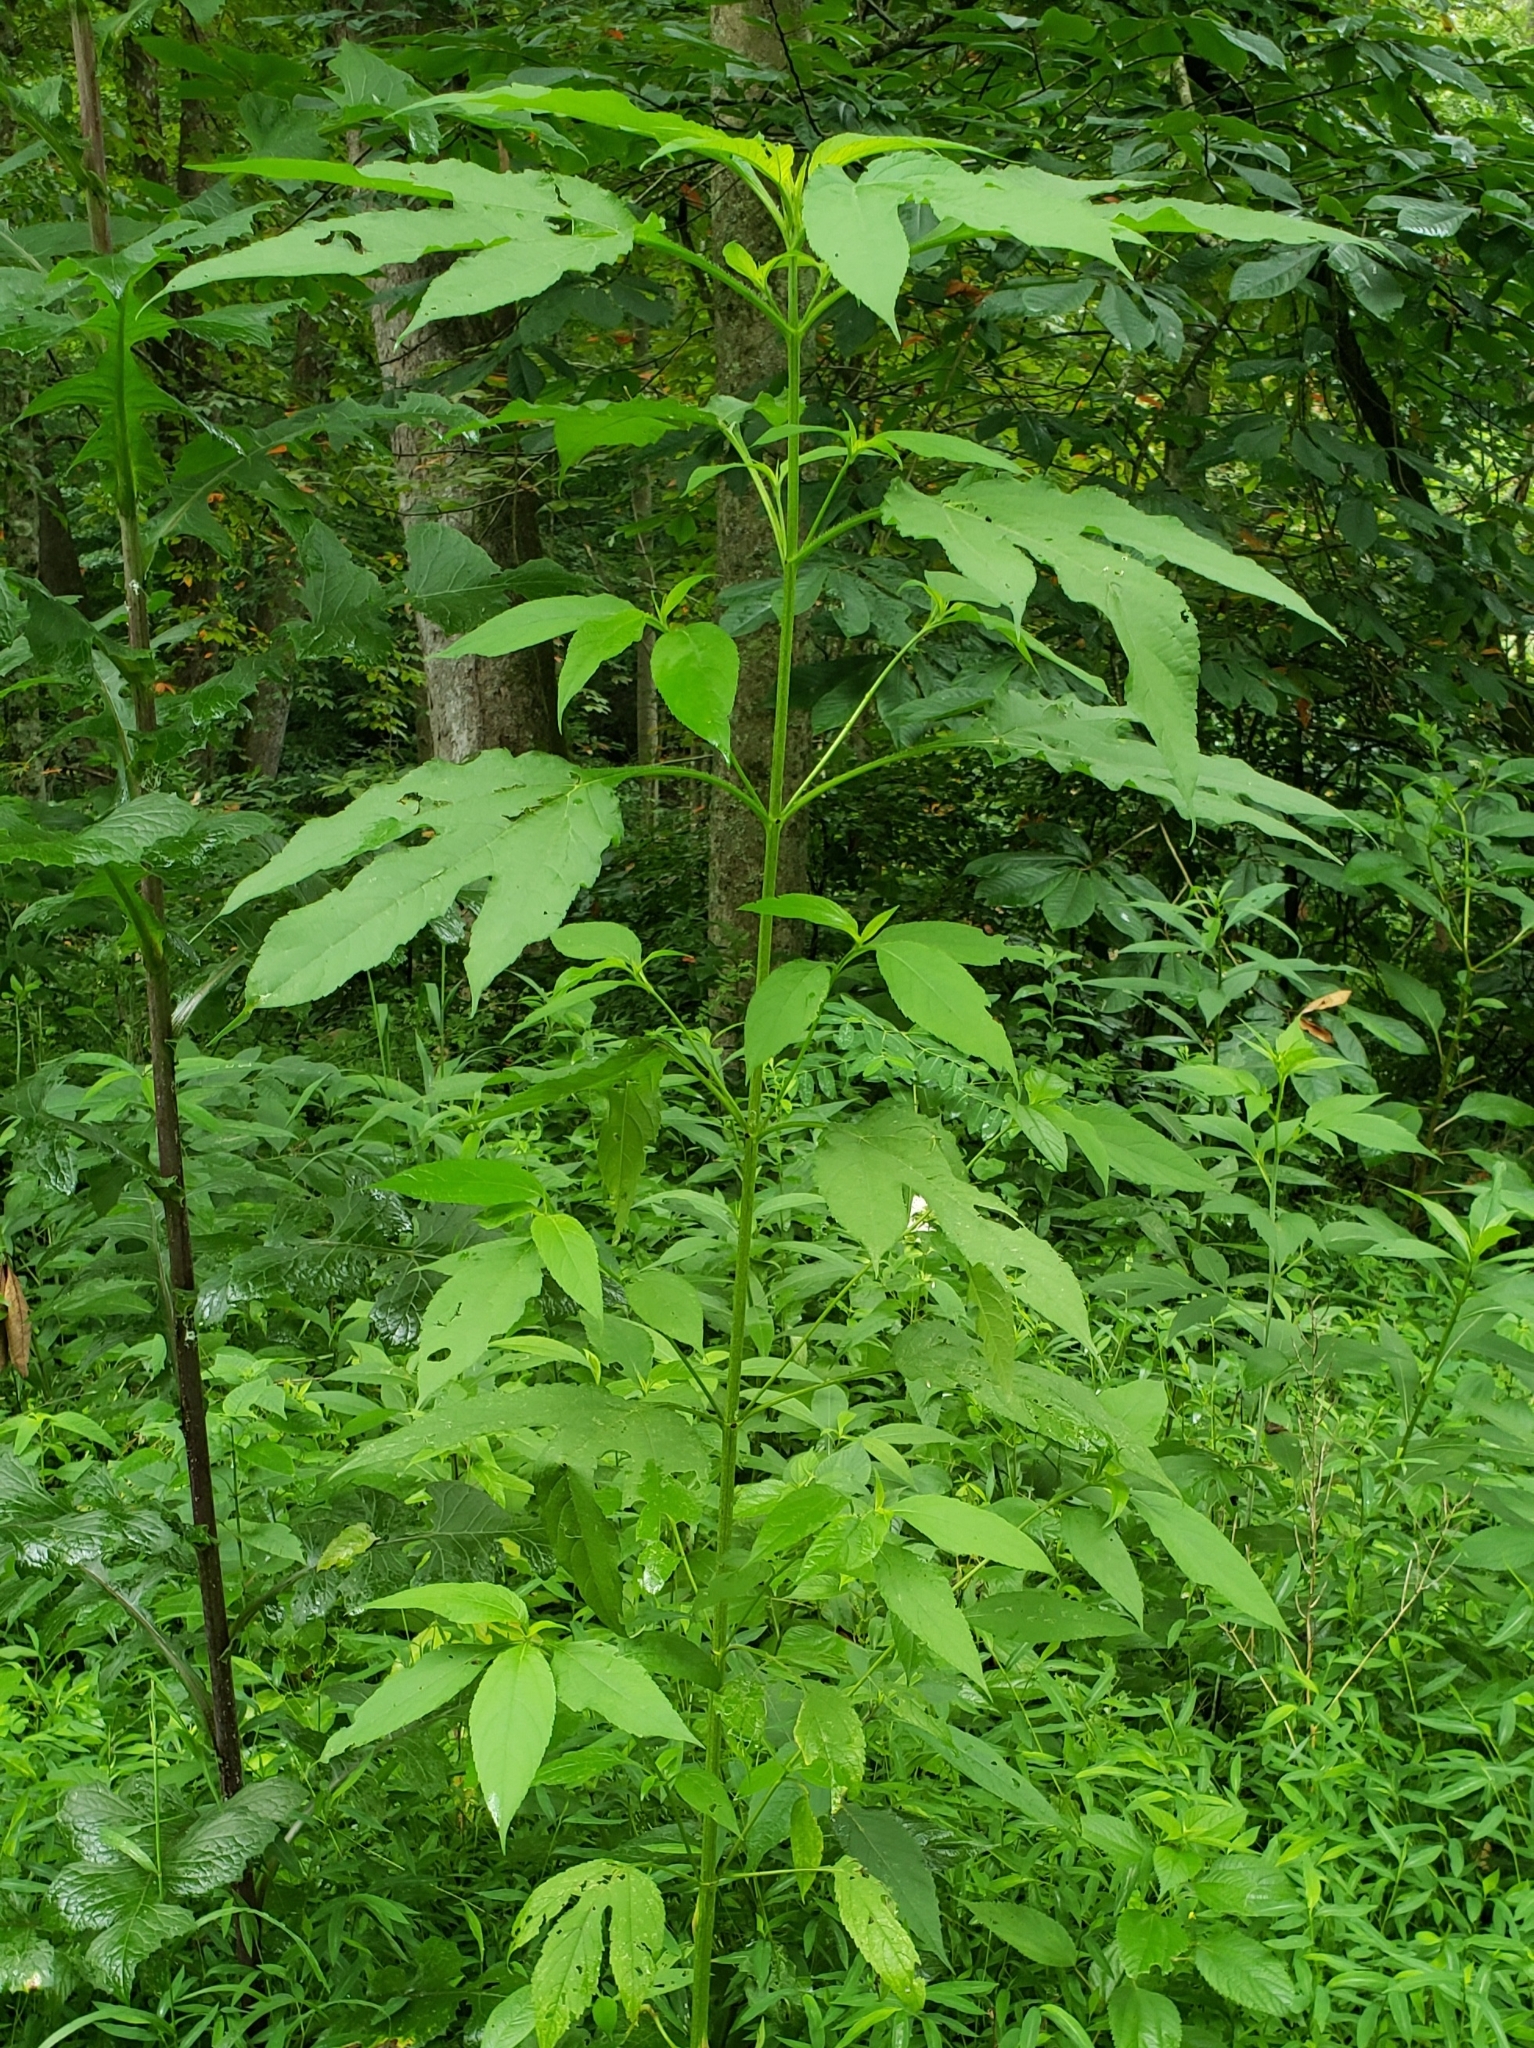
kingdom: Plantae
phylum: Tracheophyta
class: Magnoliopsida
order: Asterales
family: Asteraceae
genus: Ambrosia
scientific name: Ambrosia trifida
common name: Giant ragweed
